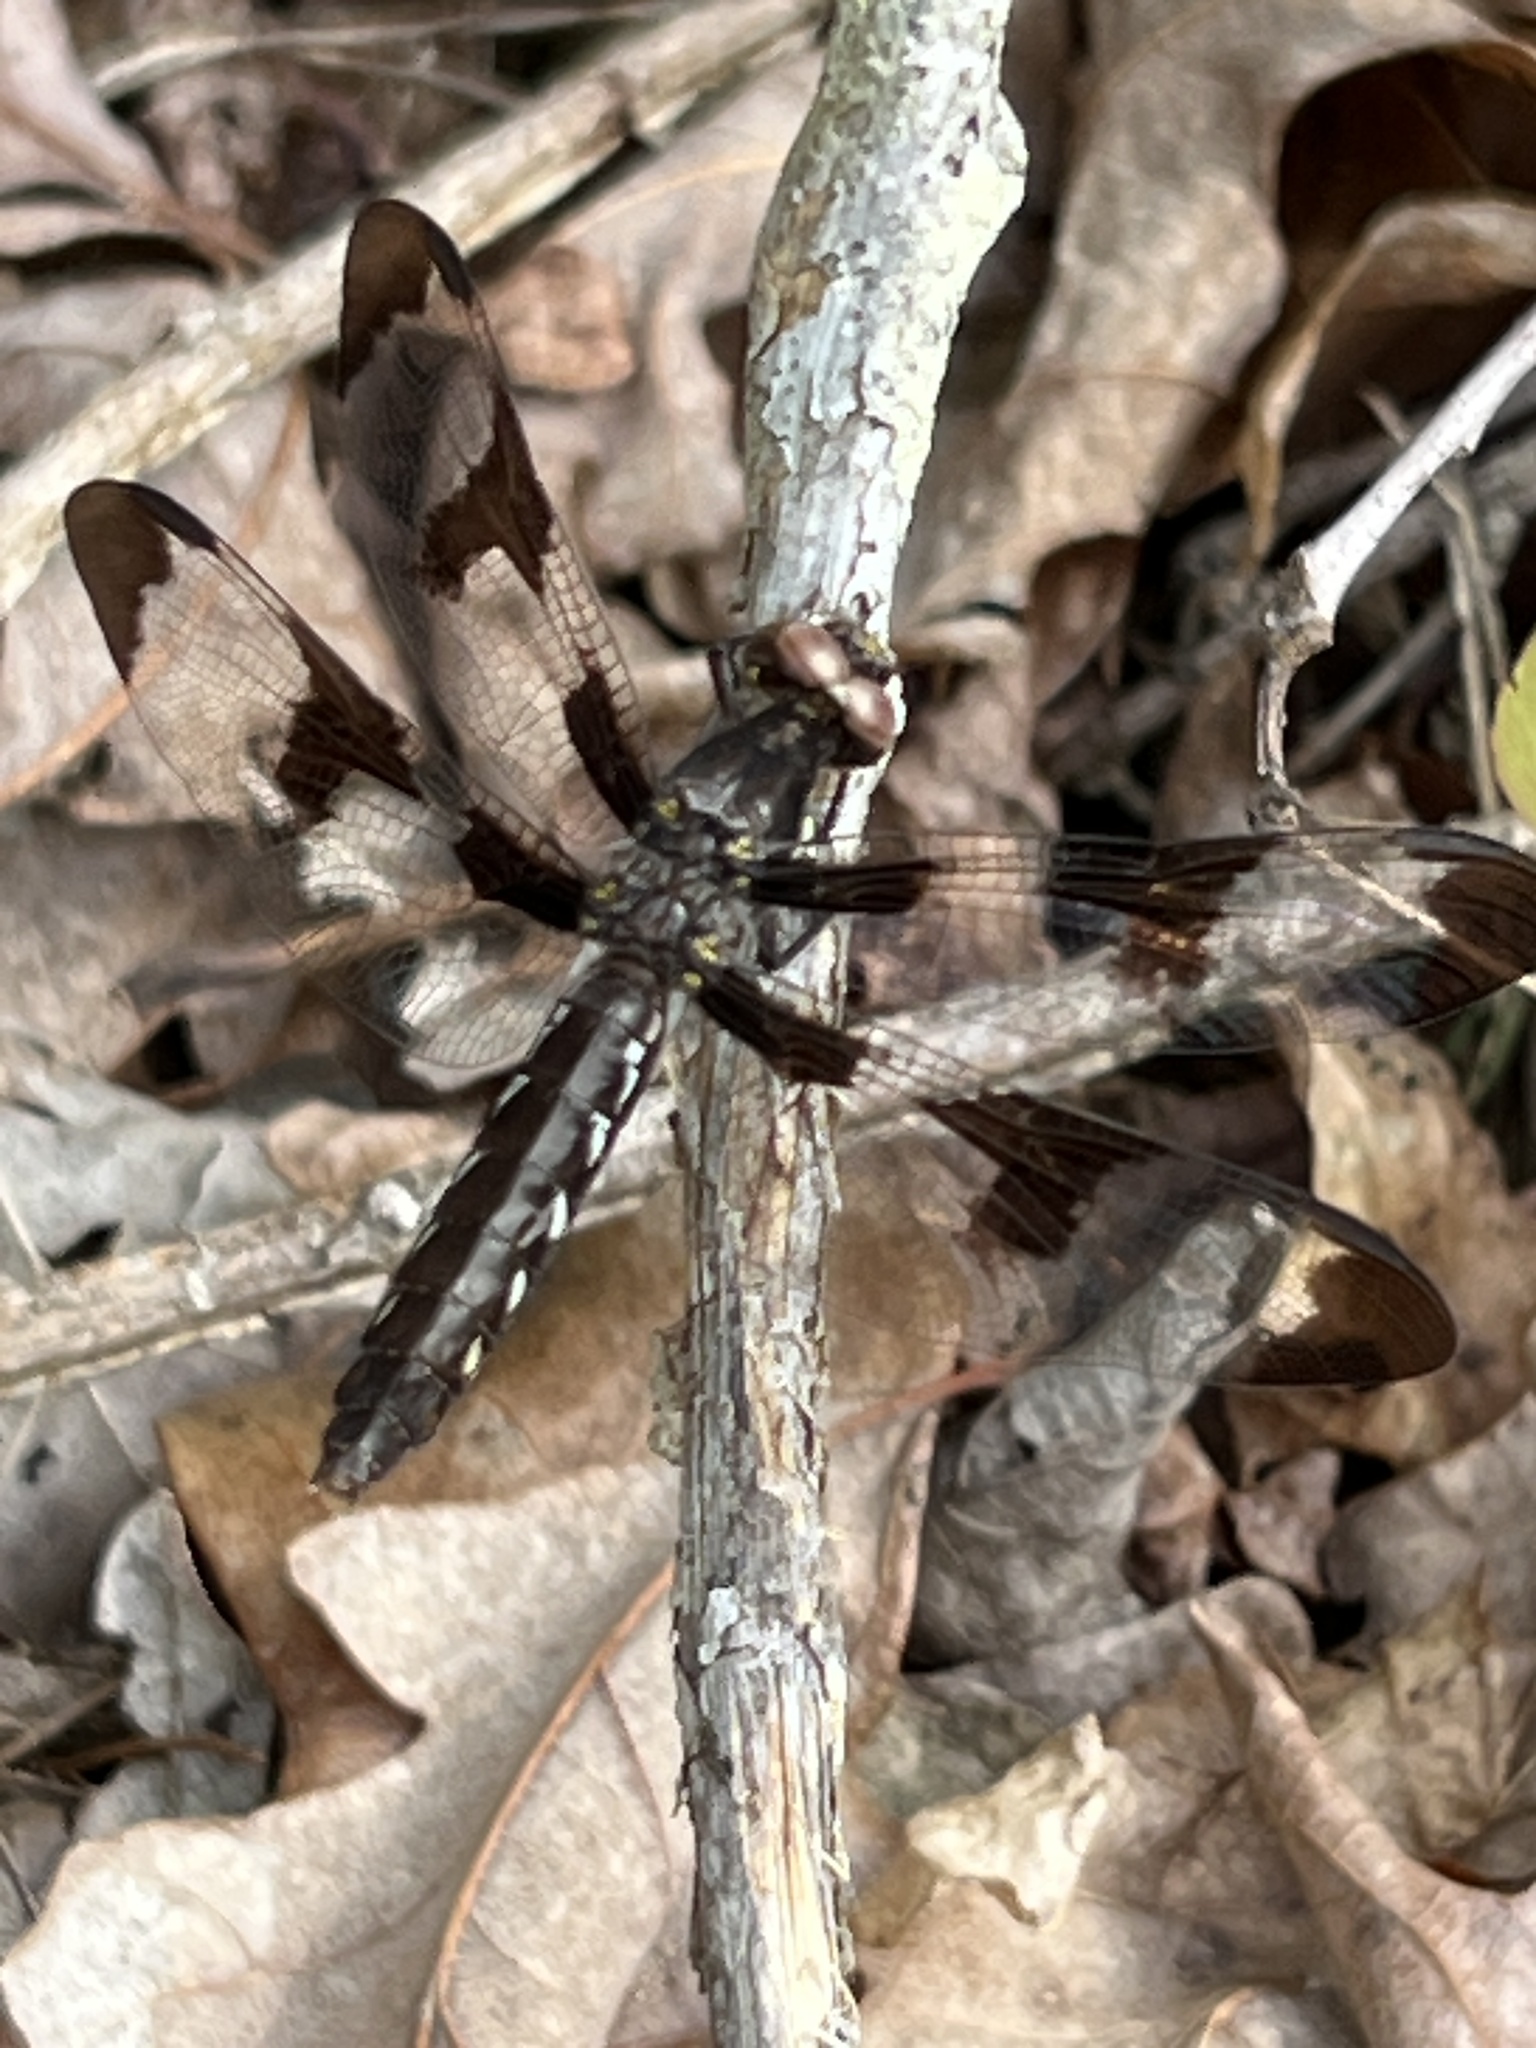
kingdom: Animalia
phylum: Arthropoda
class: Insecta
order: Odonata
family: Libellulidae
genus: Plathemis
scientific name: Plathemis lydia
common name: Common whitetail
